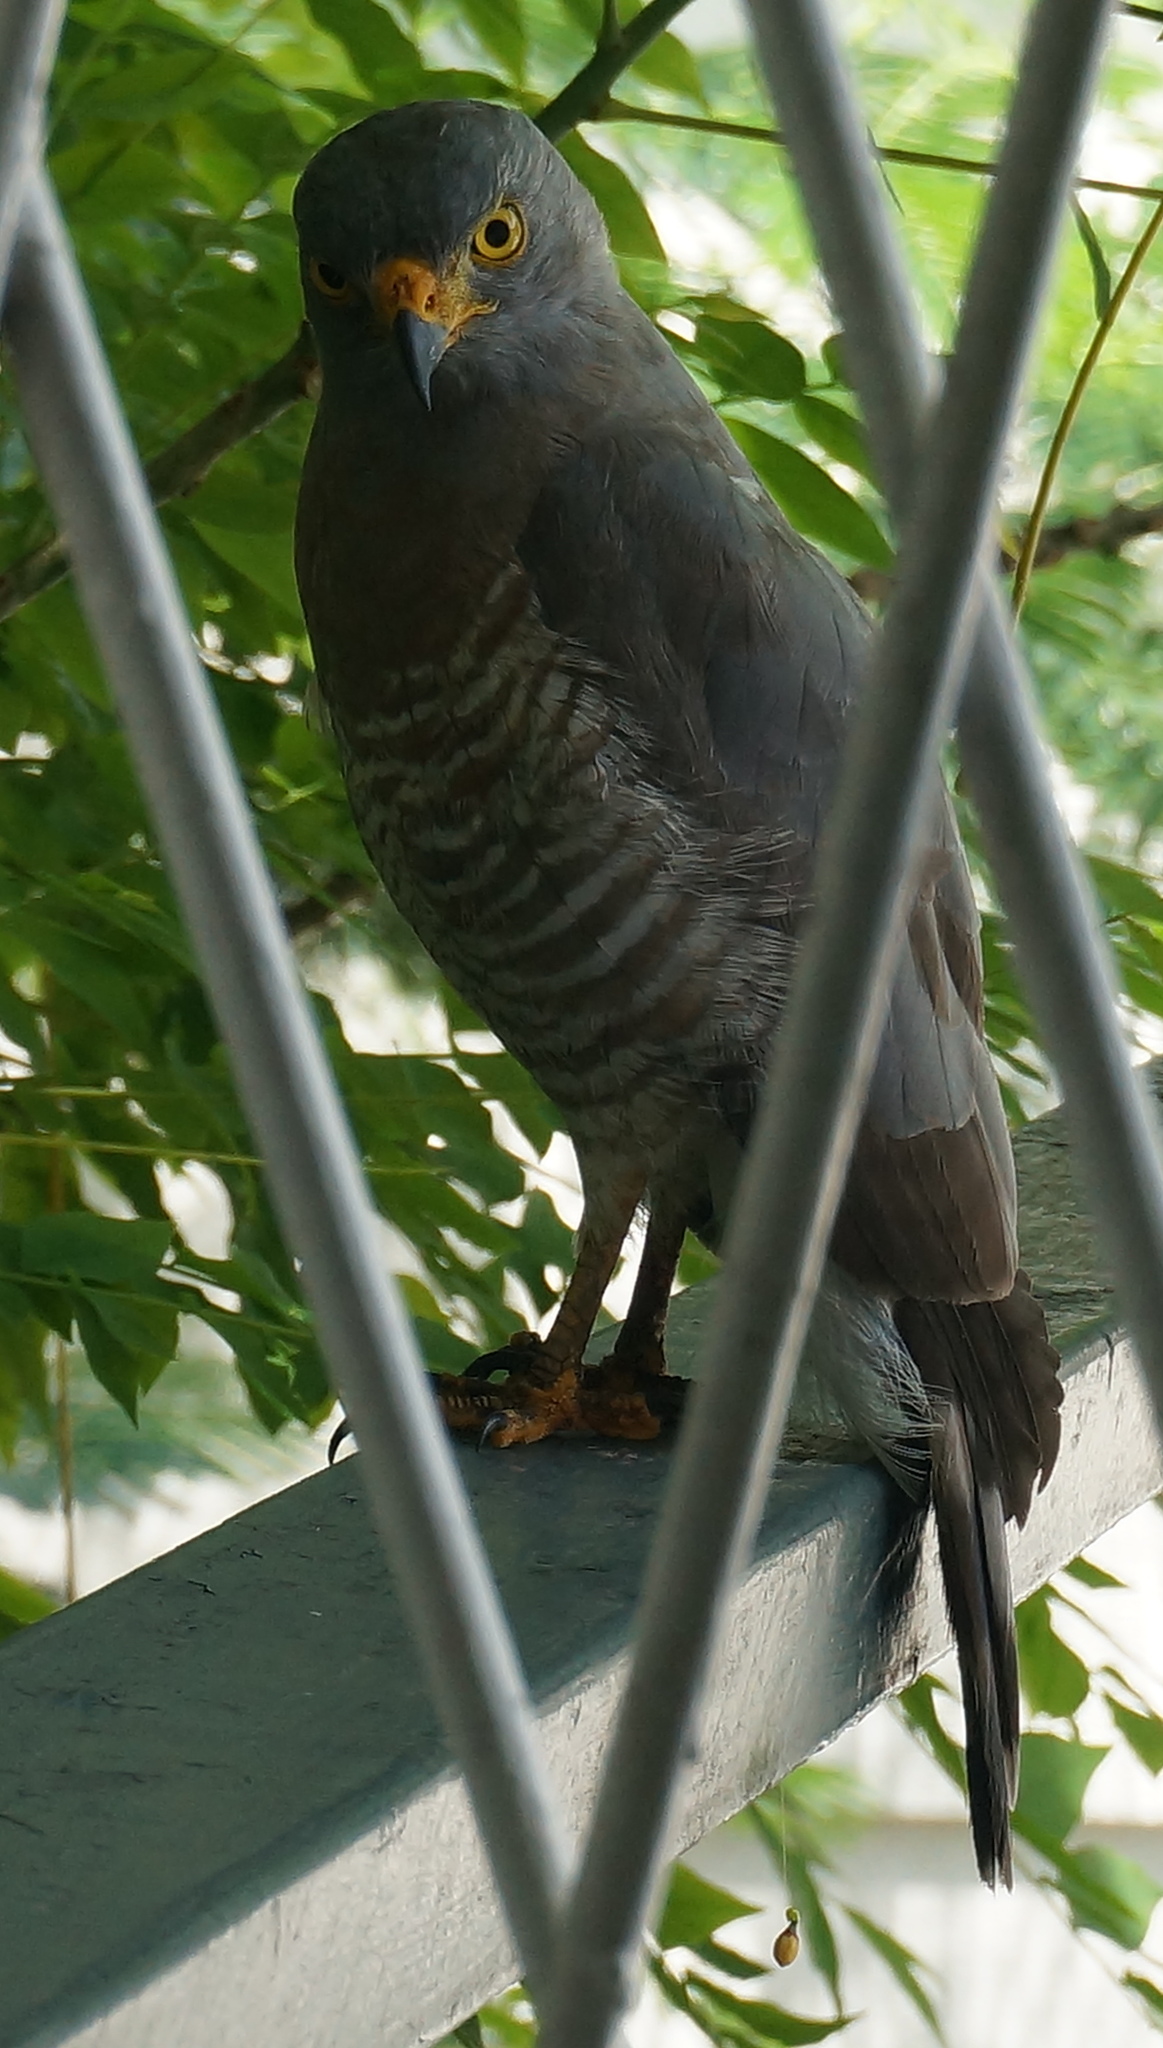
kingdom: Animalia
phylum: Chordata
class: Aves
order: Accipitriformes
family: Accipitridae
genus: Rupornis
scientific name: Rupornis magnirostris
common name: Roadside hawk
